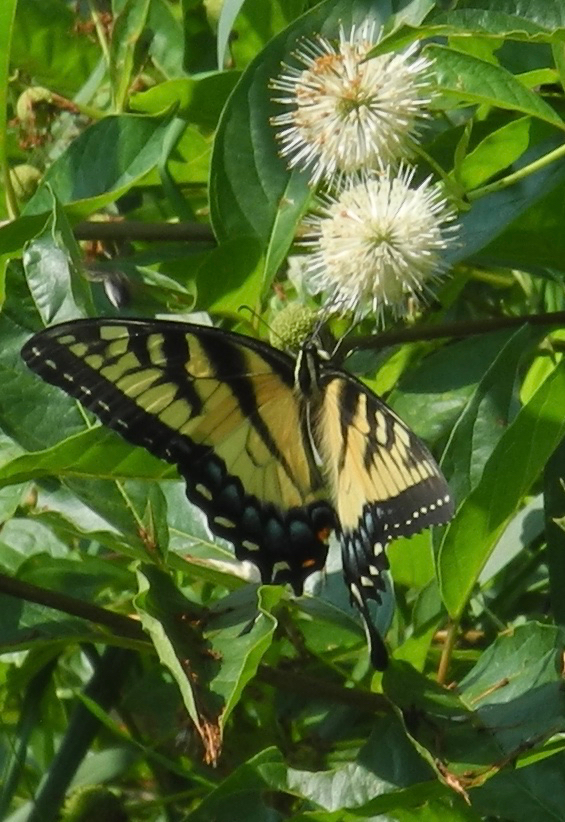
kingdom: Animalia
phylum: Arthropoda
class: Insecta
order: Lepidoptera
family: Papilionidae
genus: Papilio
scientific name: Papilio glaucus
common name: Tiger swallowtail
